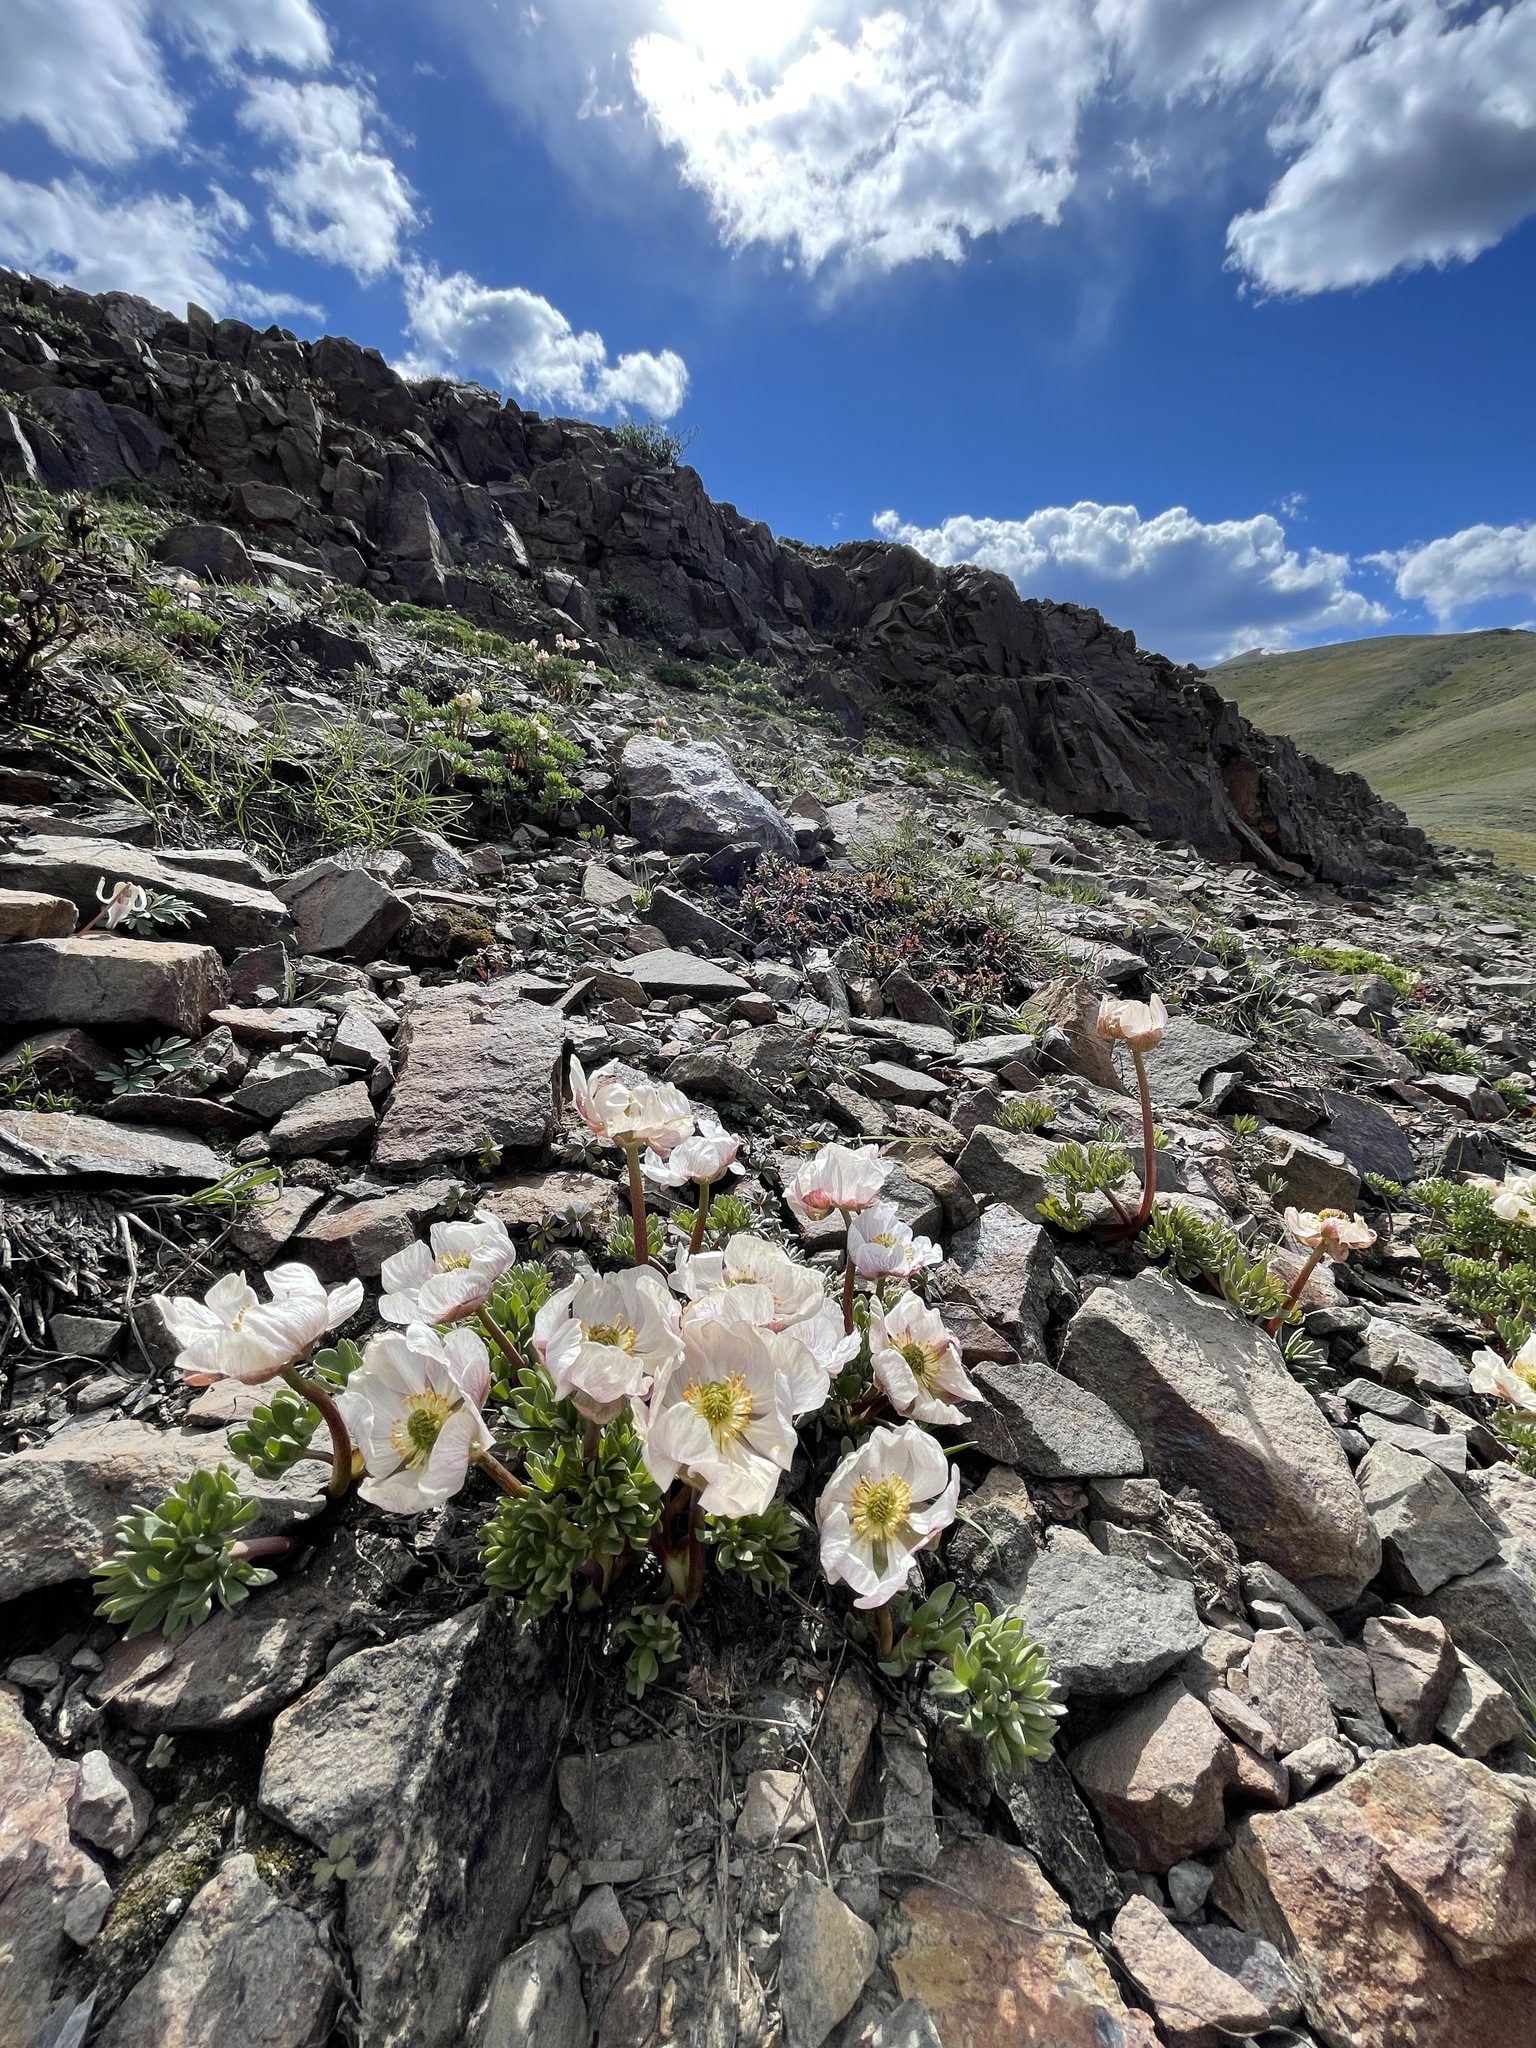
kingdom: Plantae
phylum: Tracheophyta
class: Magnoliopsida
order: Ranunculales
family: Ranunculaceae
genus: Beckwithia
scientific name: Beckwithia andersonii
